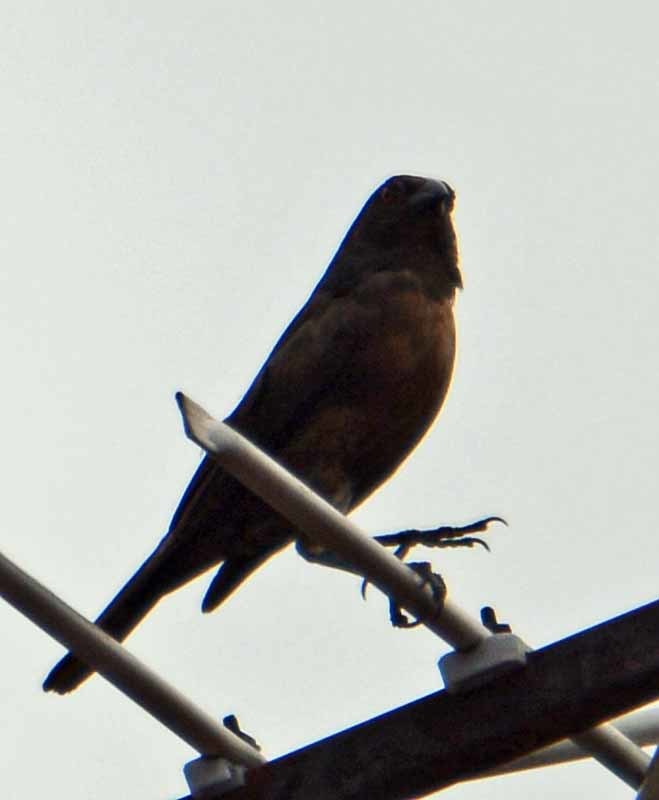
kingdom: Animalia
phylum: Chordata
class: Aves
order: Passeriformes
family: Icteridae
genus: Molothrus
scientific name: Molothrus aeneus
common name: Bronzed cowbird
